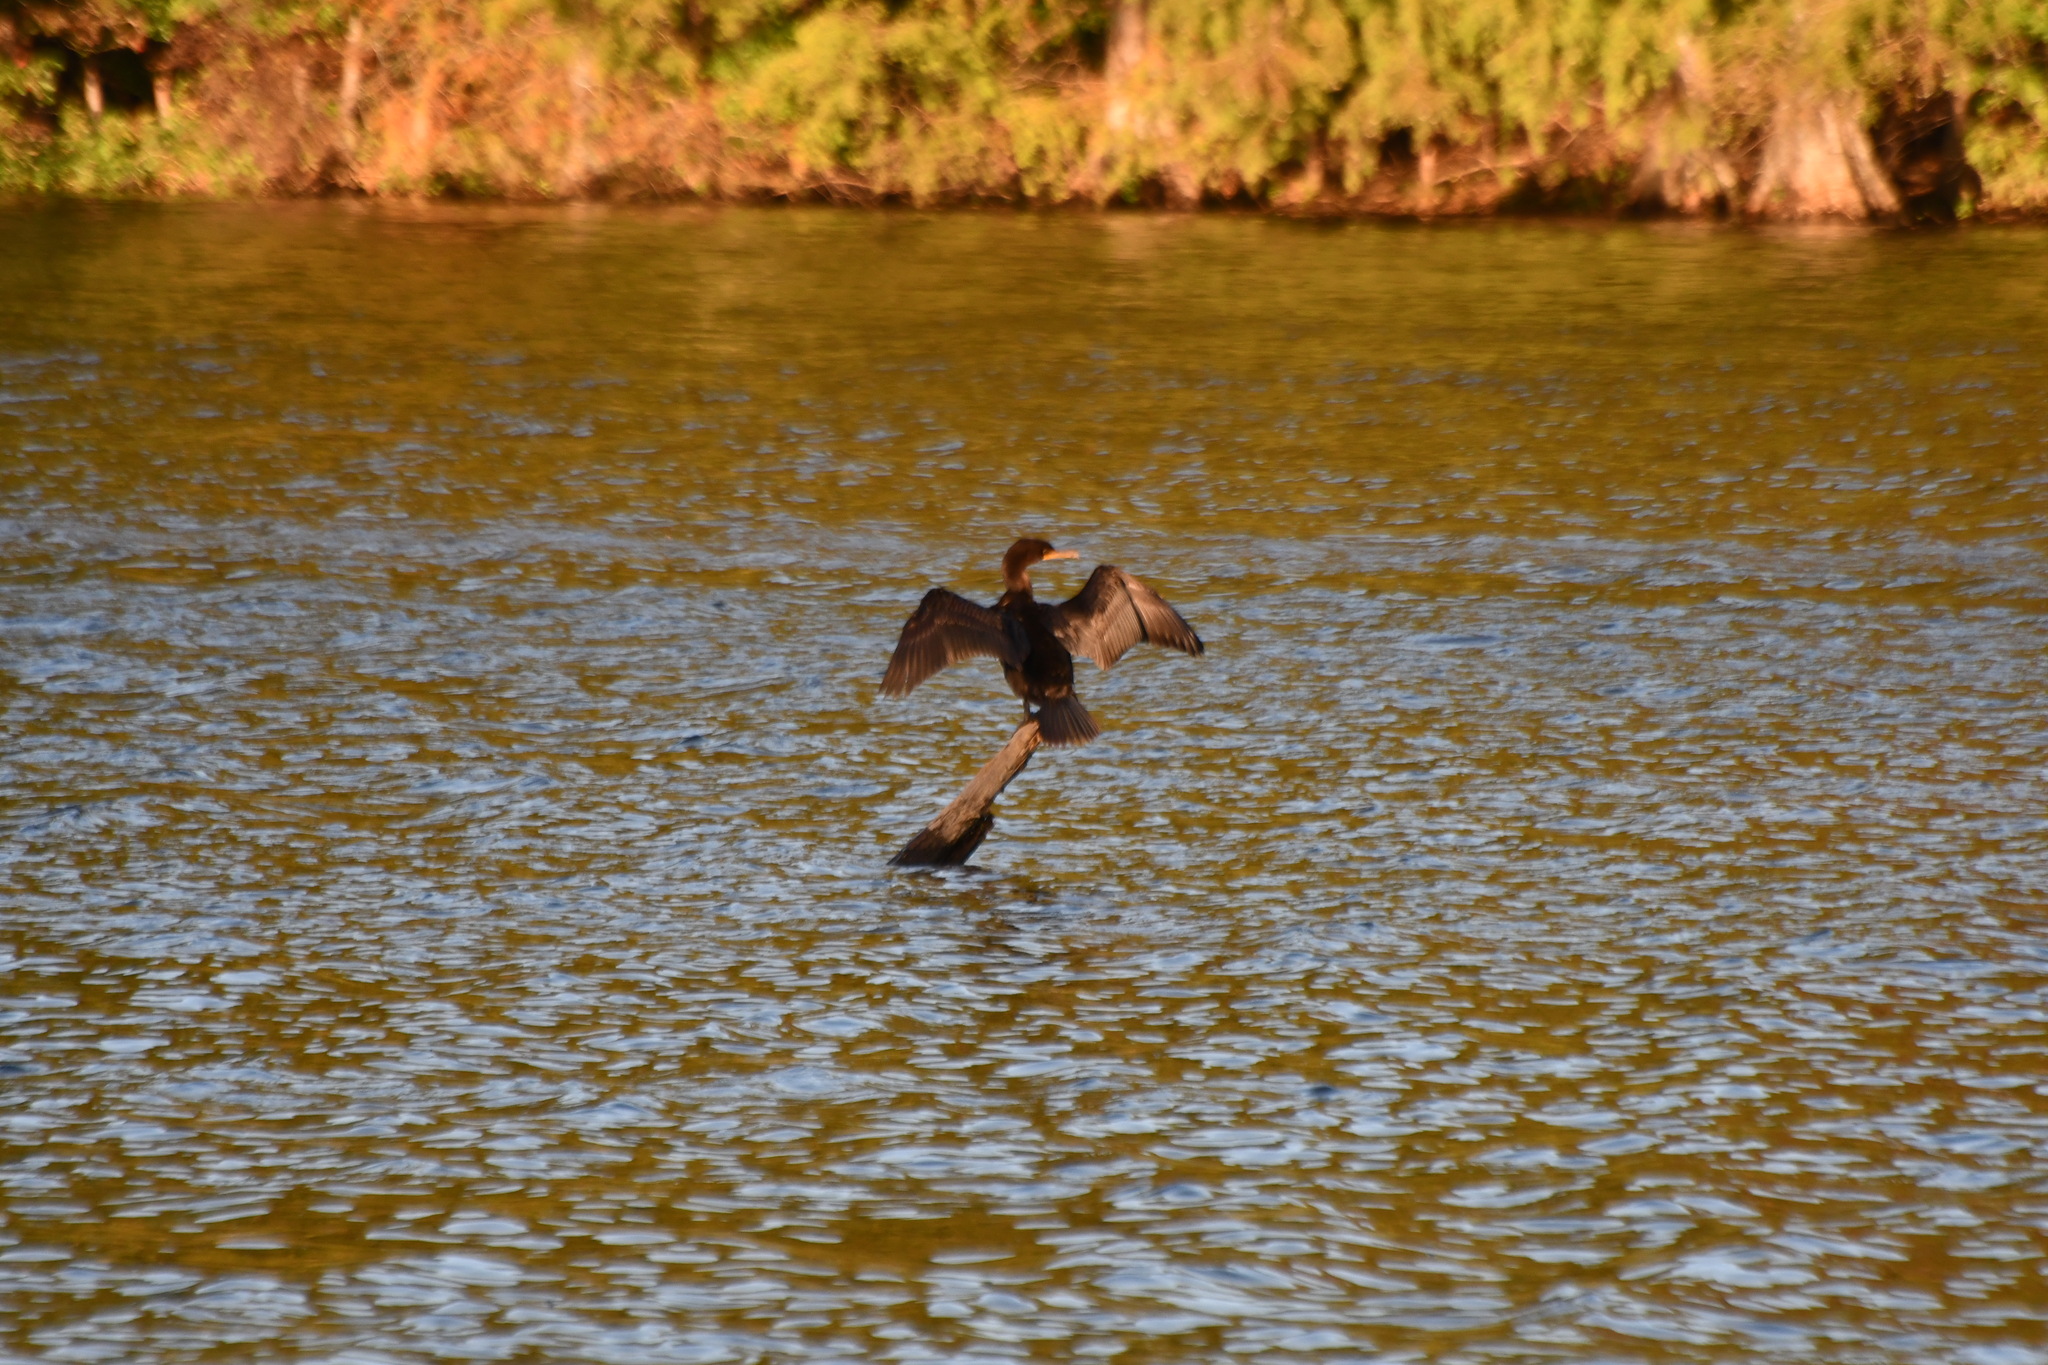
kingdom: Animalia
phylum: Chordata
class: Aves
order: Suliformes
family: Phalacrocoracidae
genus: Phalacrocorax
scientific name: Phalacrocorax auritus
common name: Double-crested cormorant
